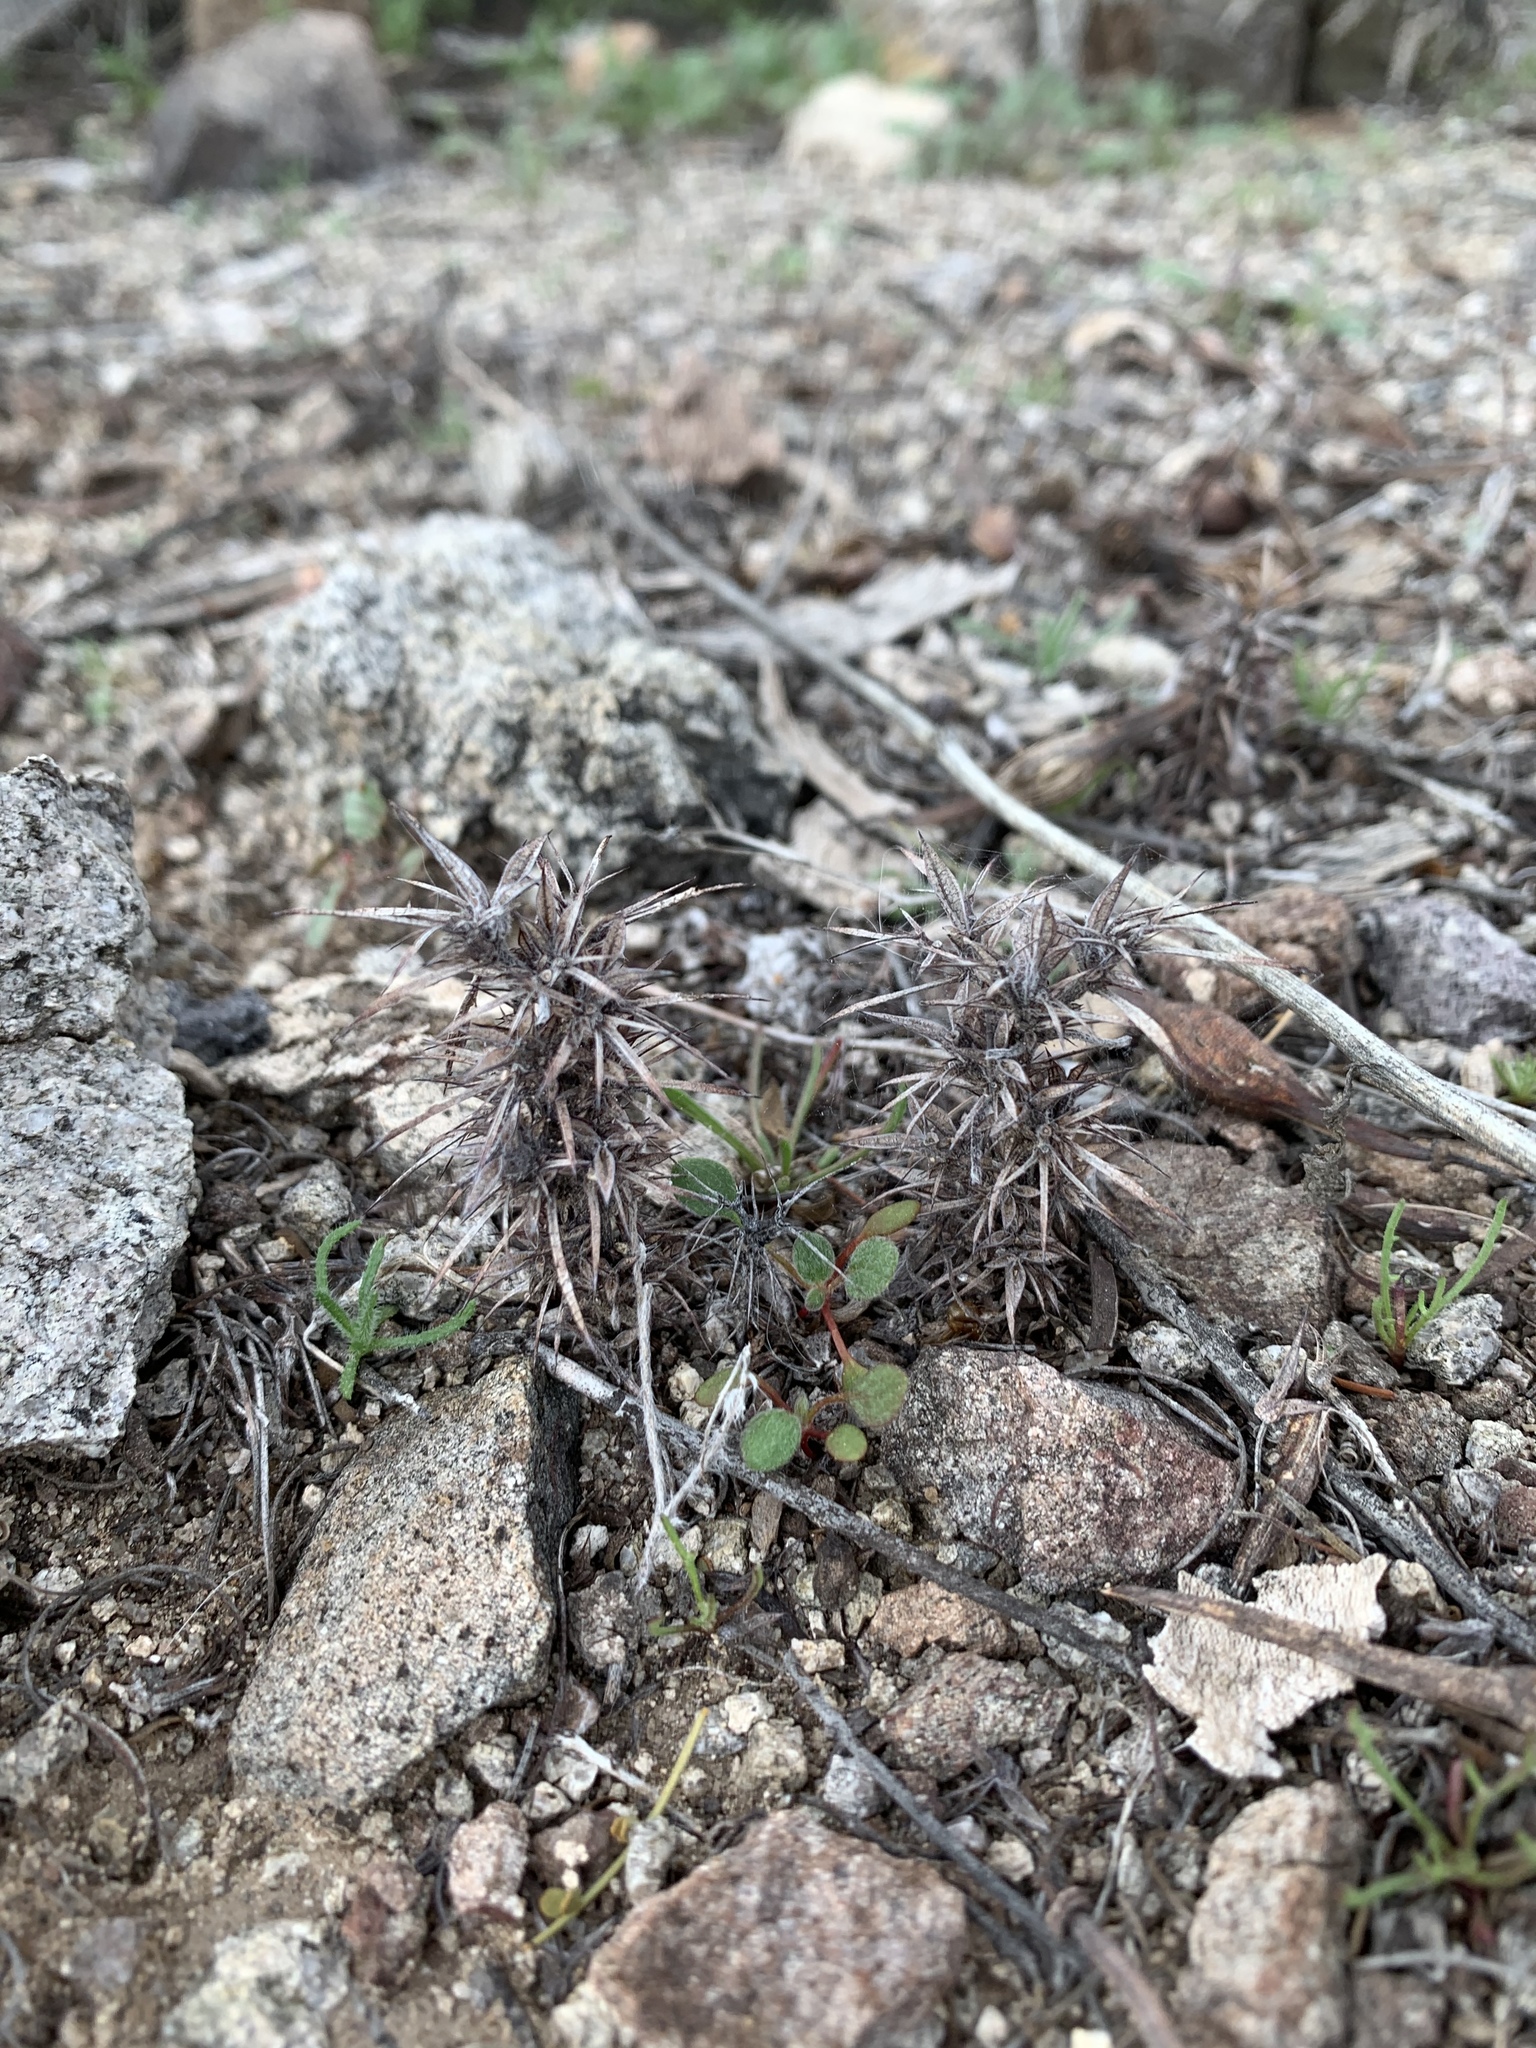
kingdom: Plantae
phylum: Tracheophyta
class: Magnoliopsida
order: Caryophyllales
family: Polygonaceae
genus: Chorizanthe
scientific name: Chorizanthe rigida
